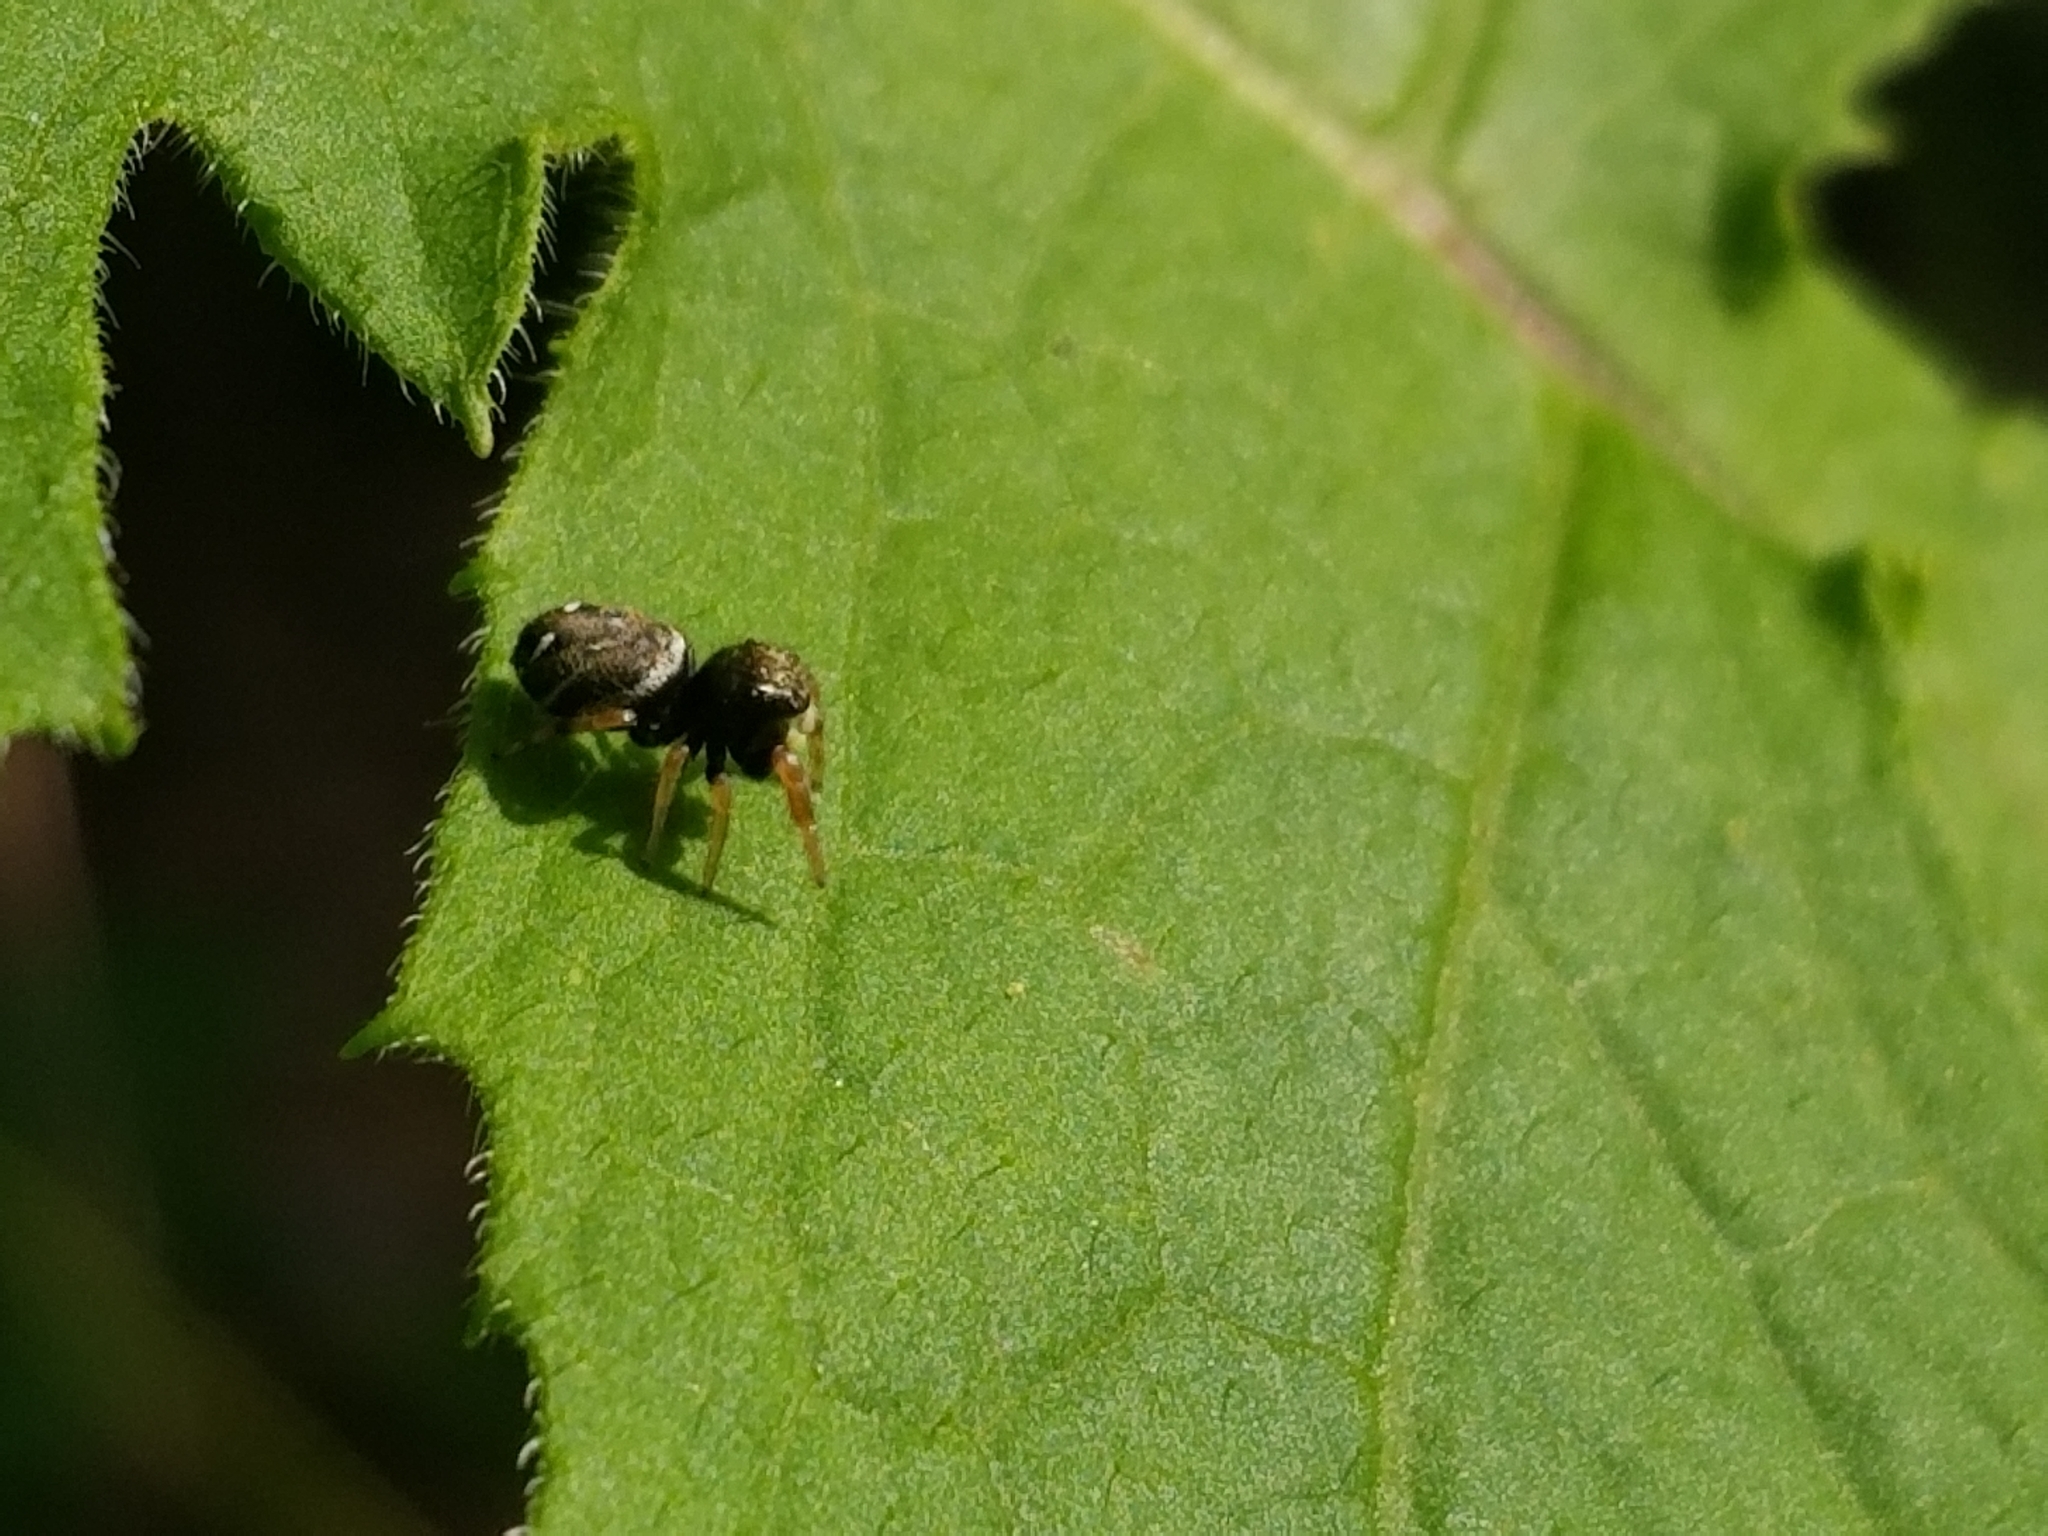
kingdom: Animalia
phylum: Arthropoda
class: Arachnida
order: Araneae
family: Salticidae
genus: Phidippus
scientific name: Phidippus whitmani
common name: Whitman's jumping spider
